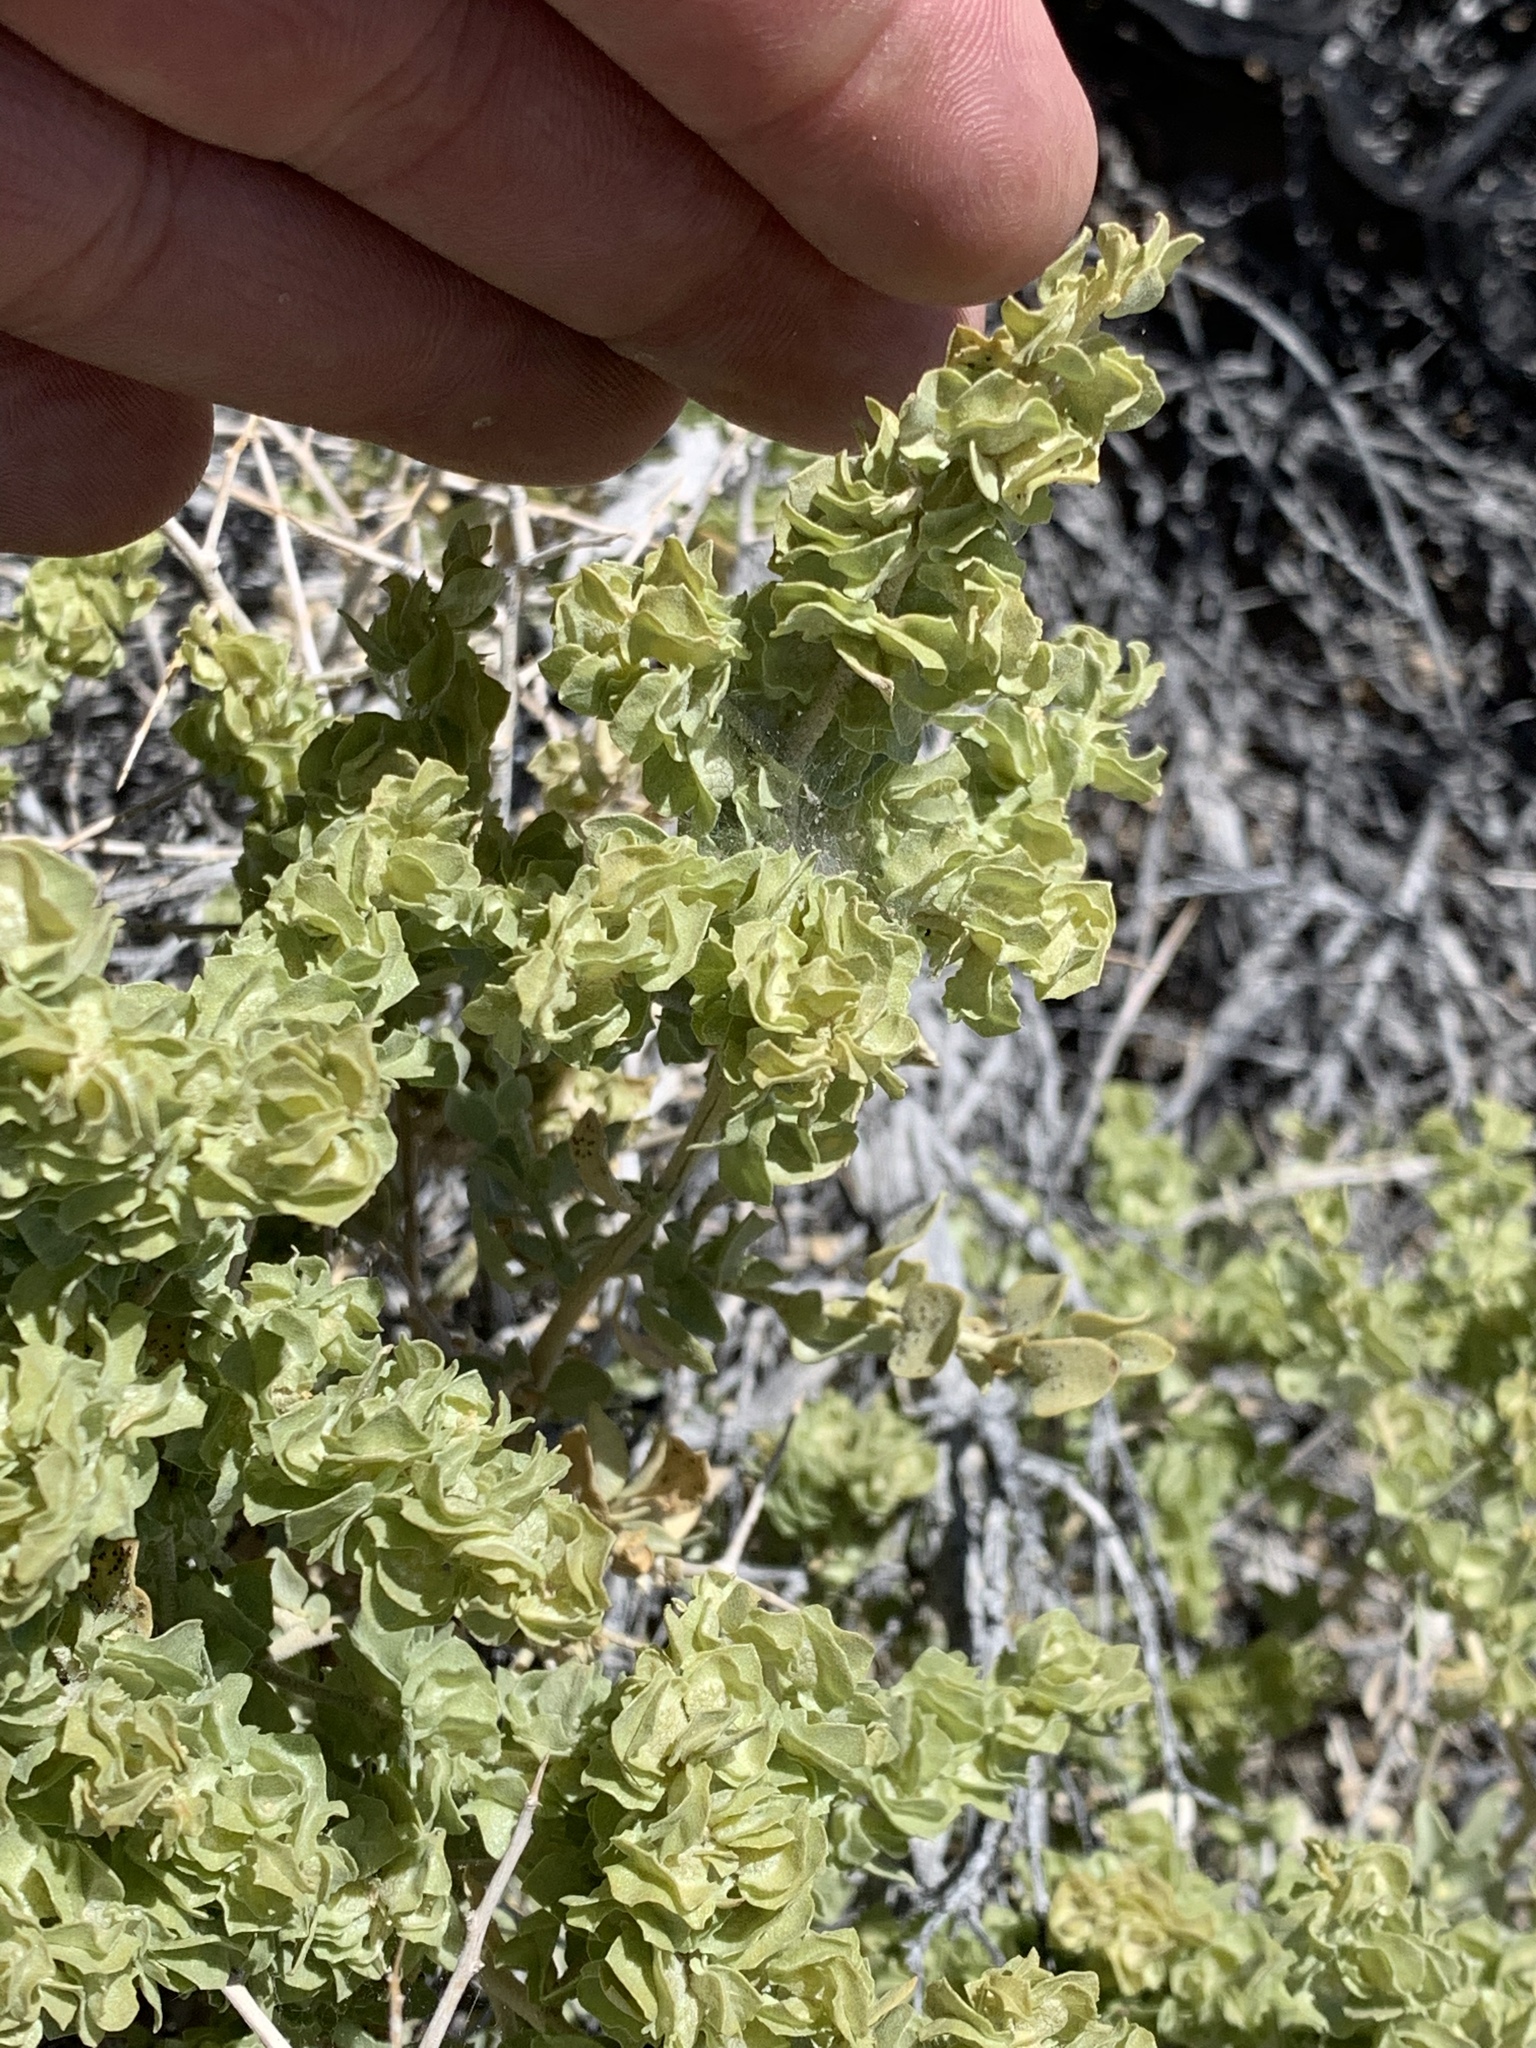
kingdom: Plantae
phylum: Tracheophyta
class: Magnoliopsida
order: Caryophyllales
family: Amaranthaceae
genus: Atriplex
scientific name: Atriplex confertifolia
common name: Shadscale
